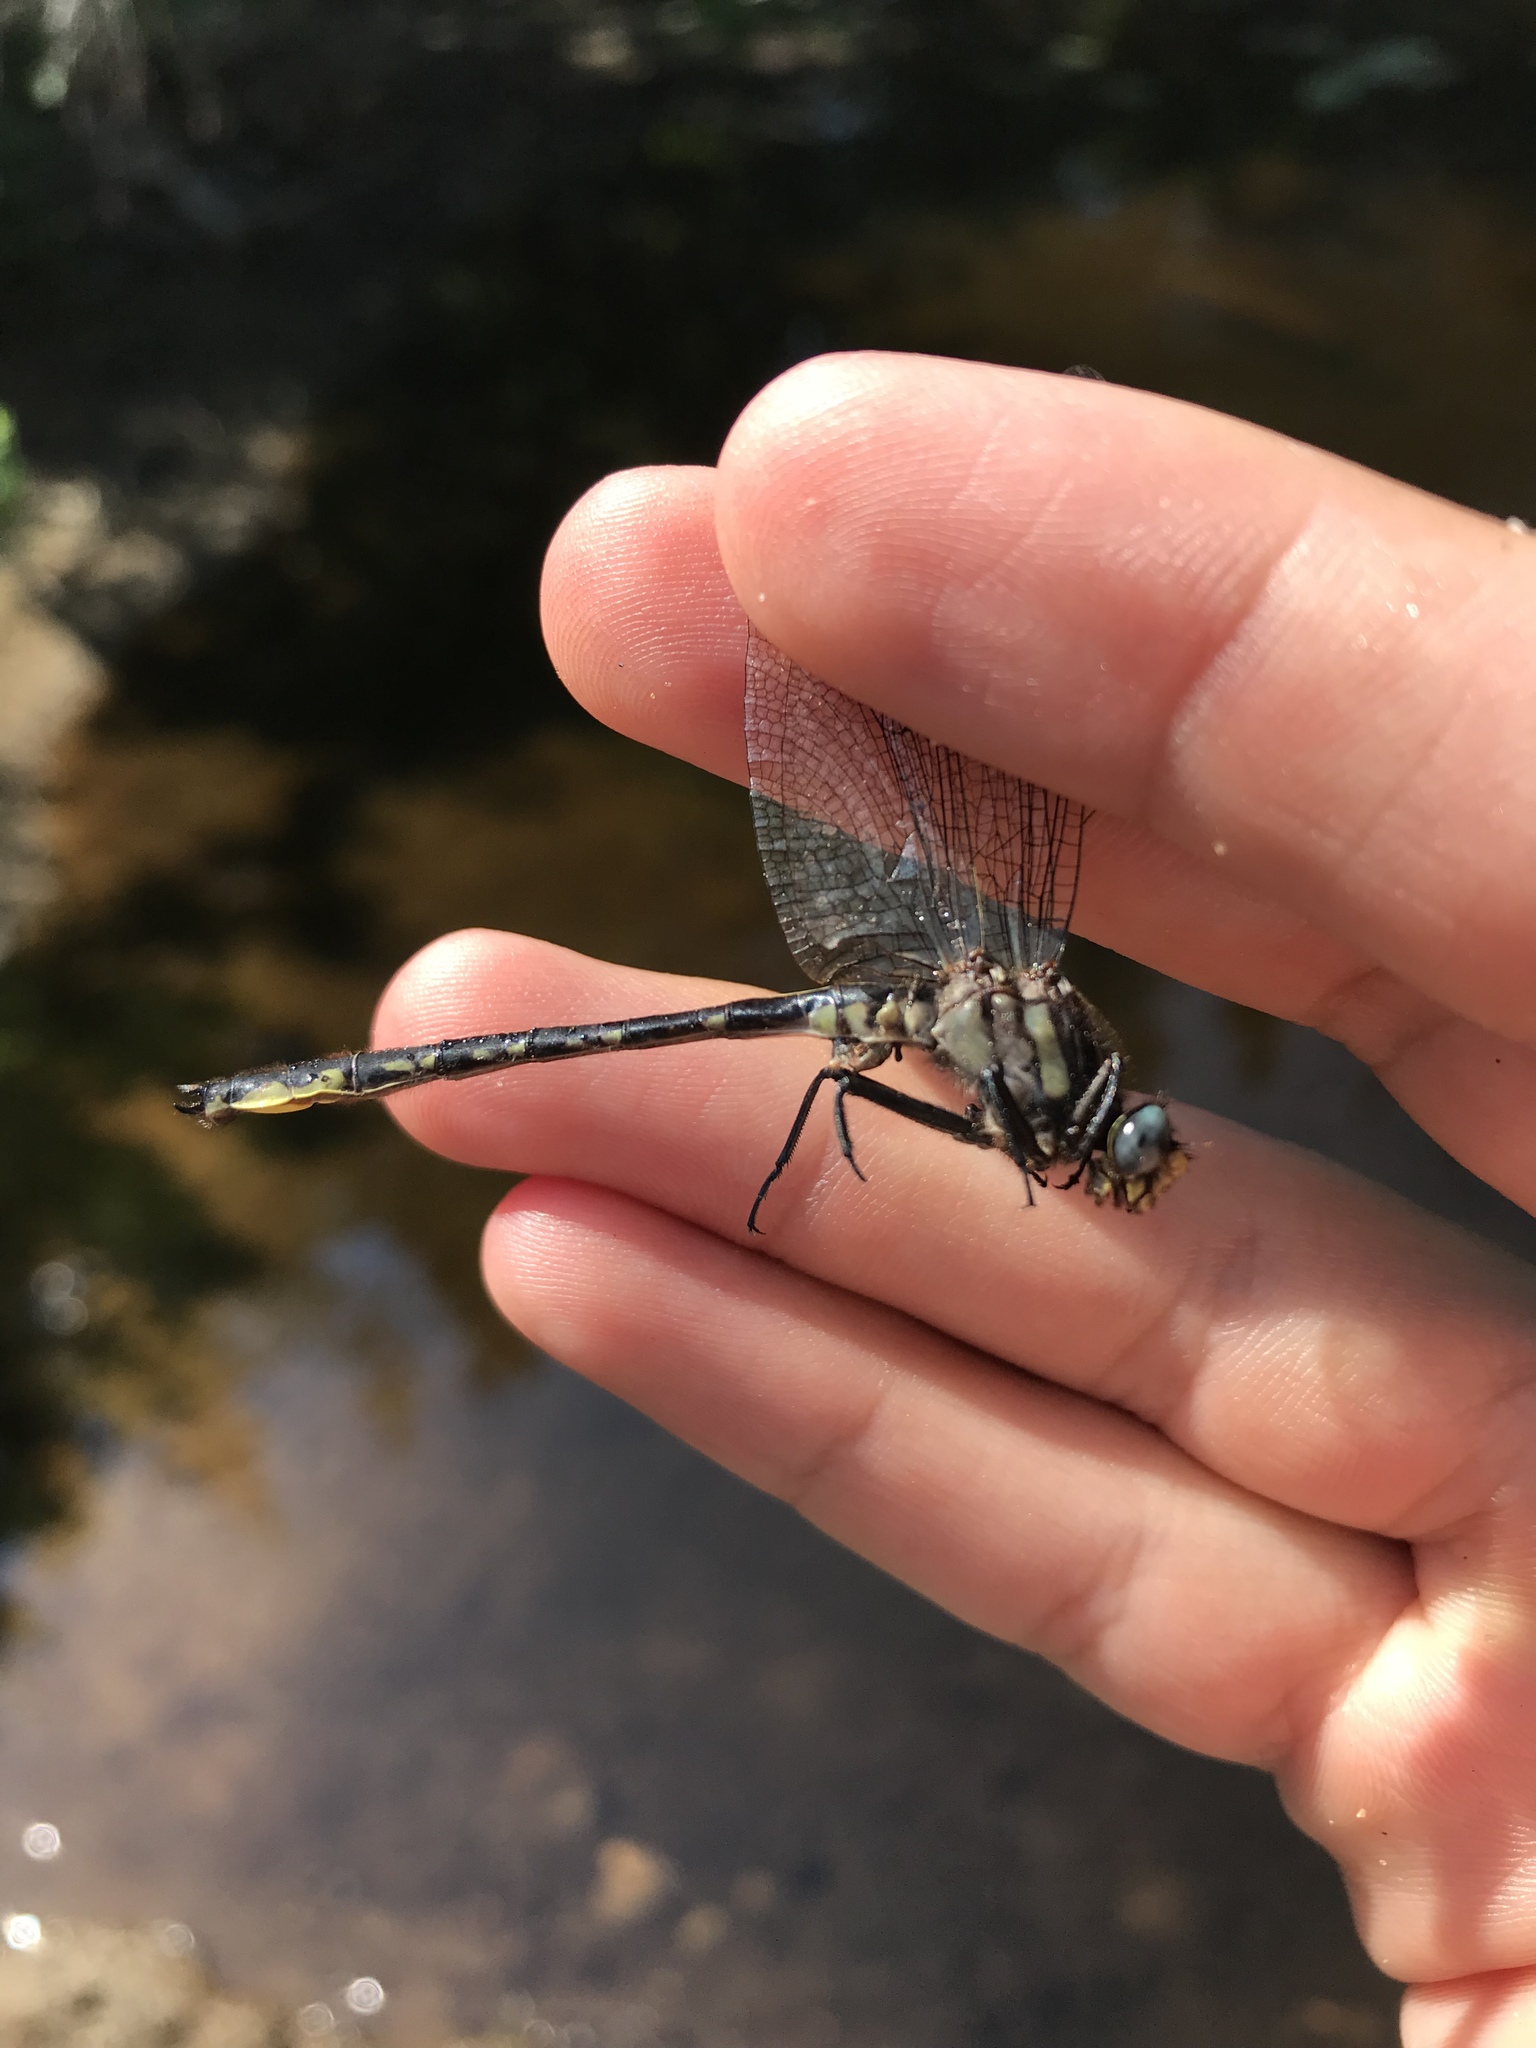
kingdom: Animalia
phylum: Arthropoda
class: Insecta
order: Odonata
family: Gomphidae
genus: Phanogomphus
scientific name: Phanogomphus borealis
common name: Beaverpond clubtail
